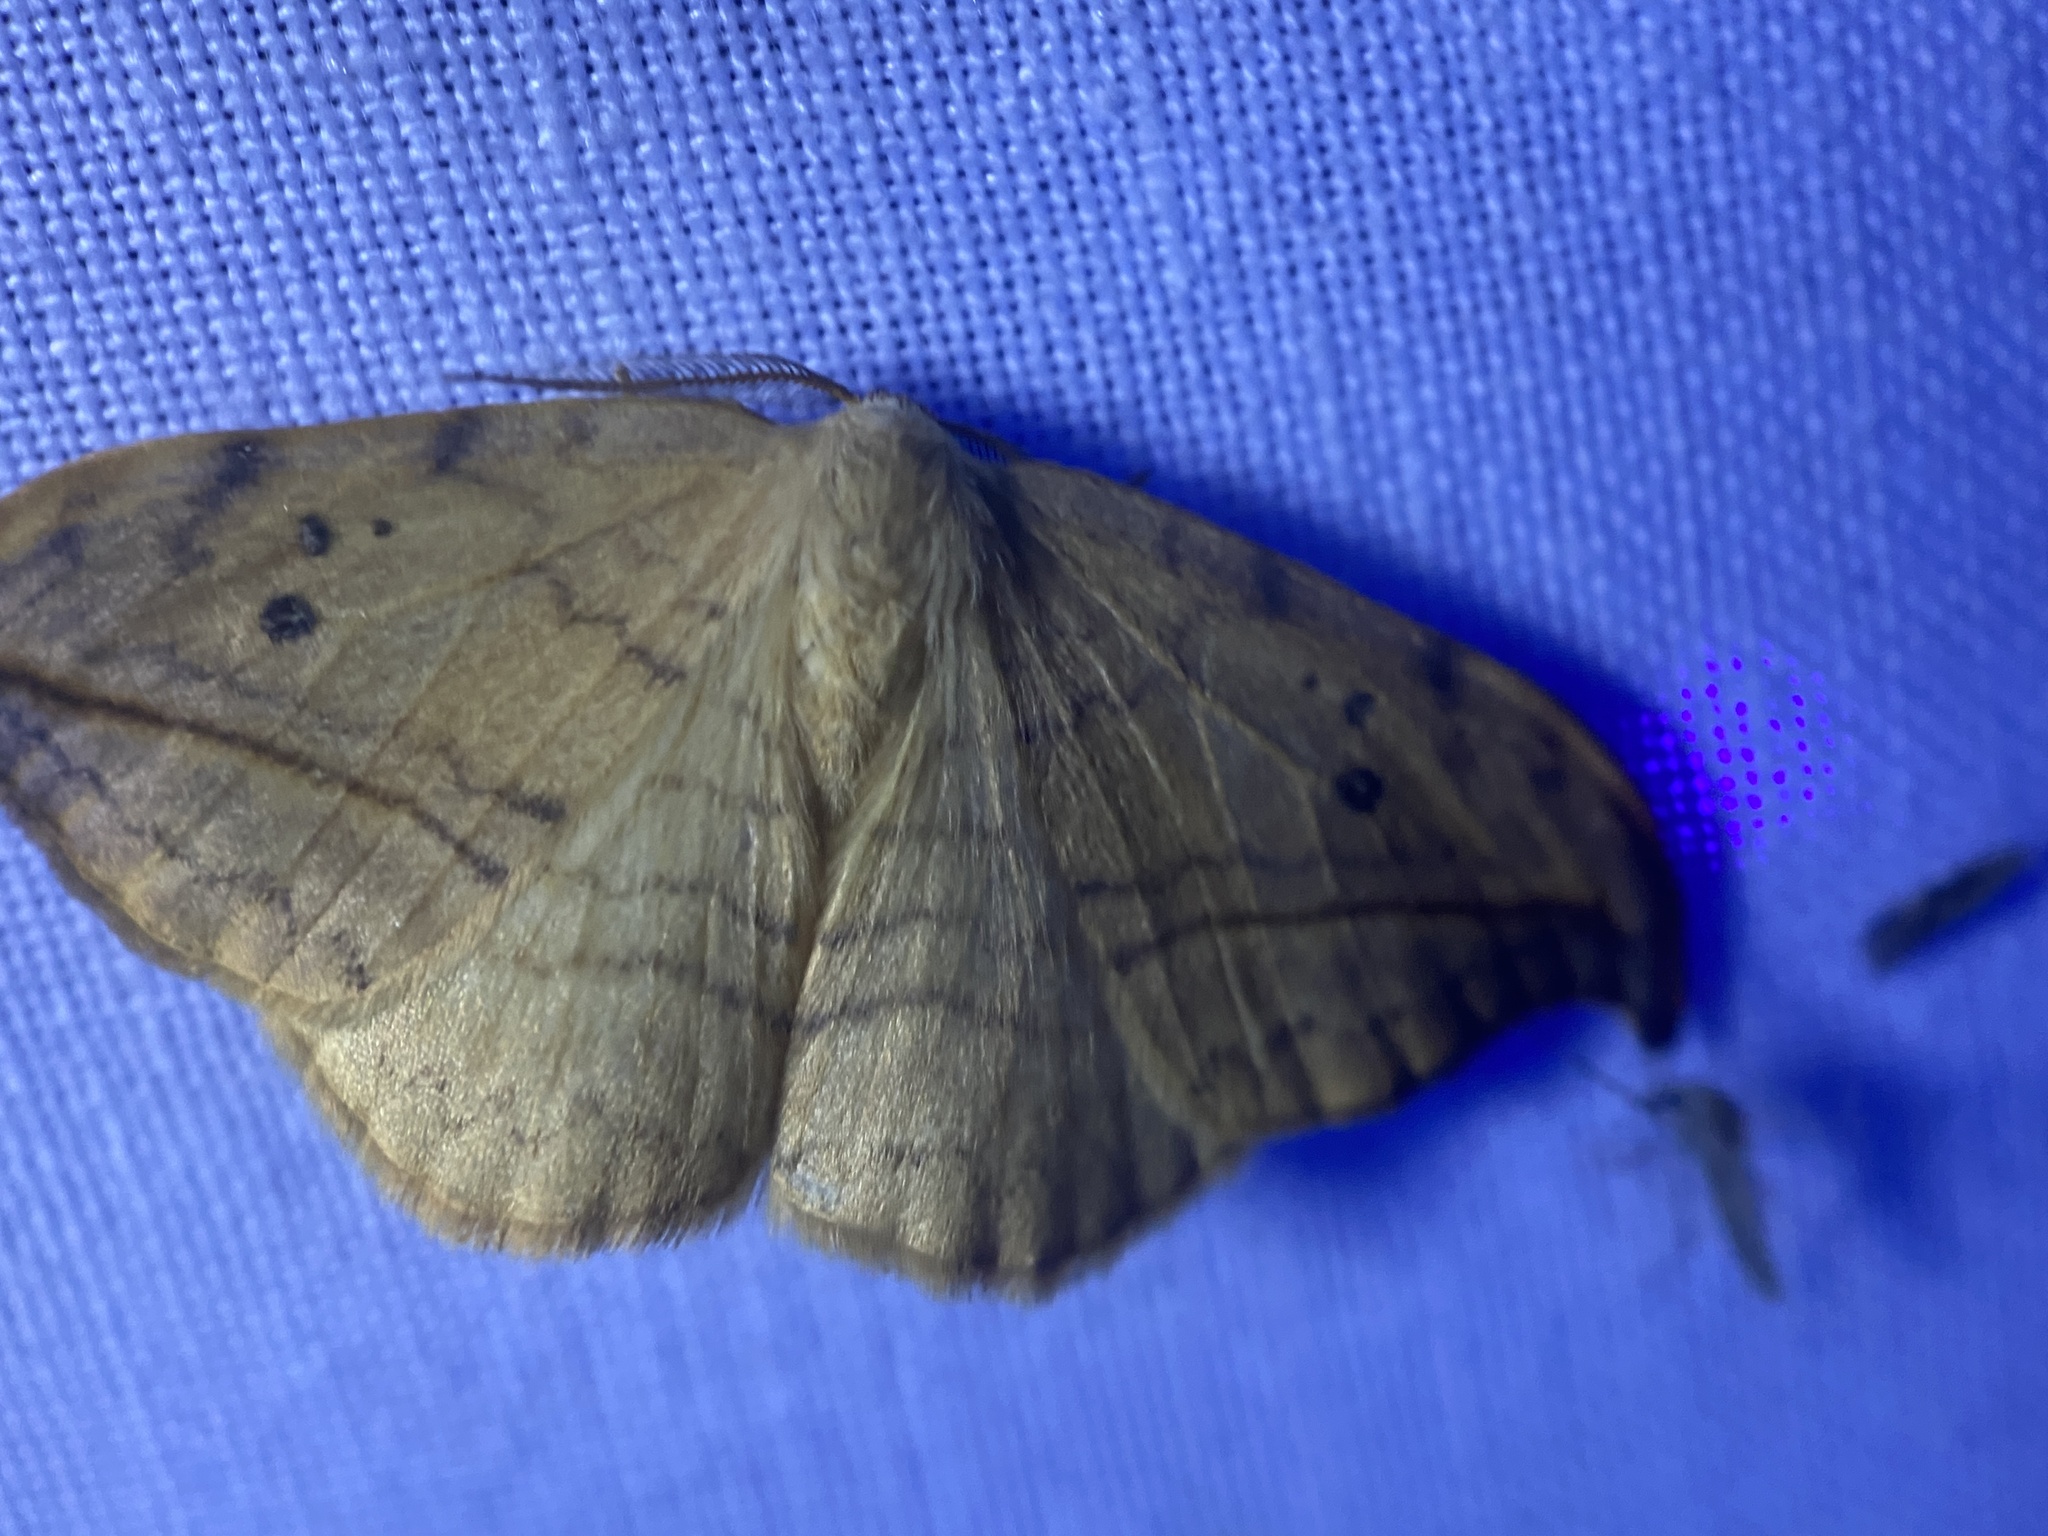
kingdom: Animalia
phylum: Arthropoda
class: Insecta
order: Lepidoptera
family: Drepanidae
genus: Drepana
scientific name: Drepana arcuata
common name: Arched hooktip moth
